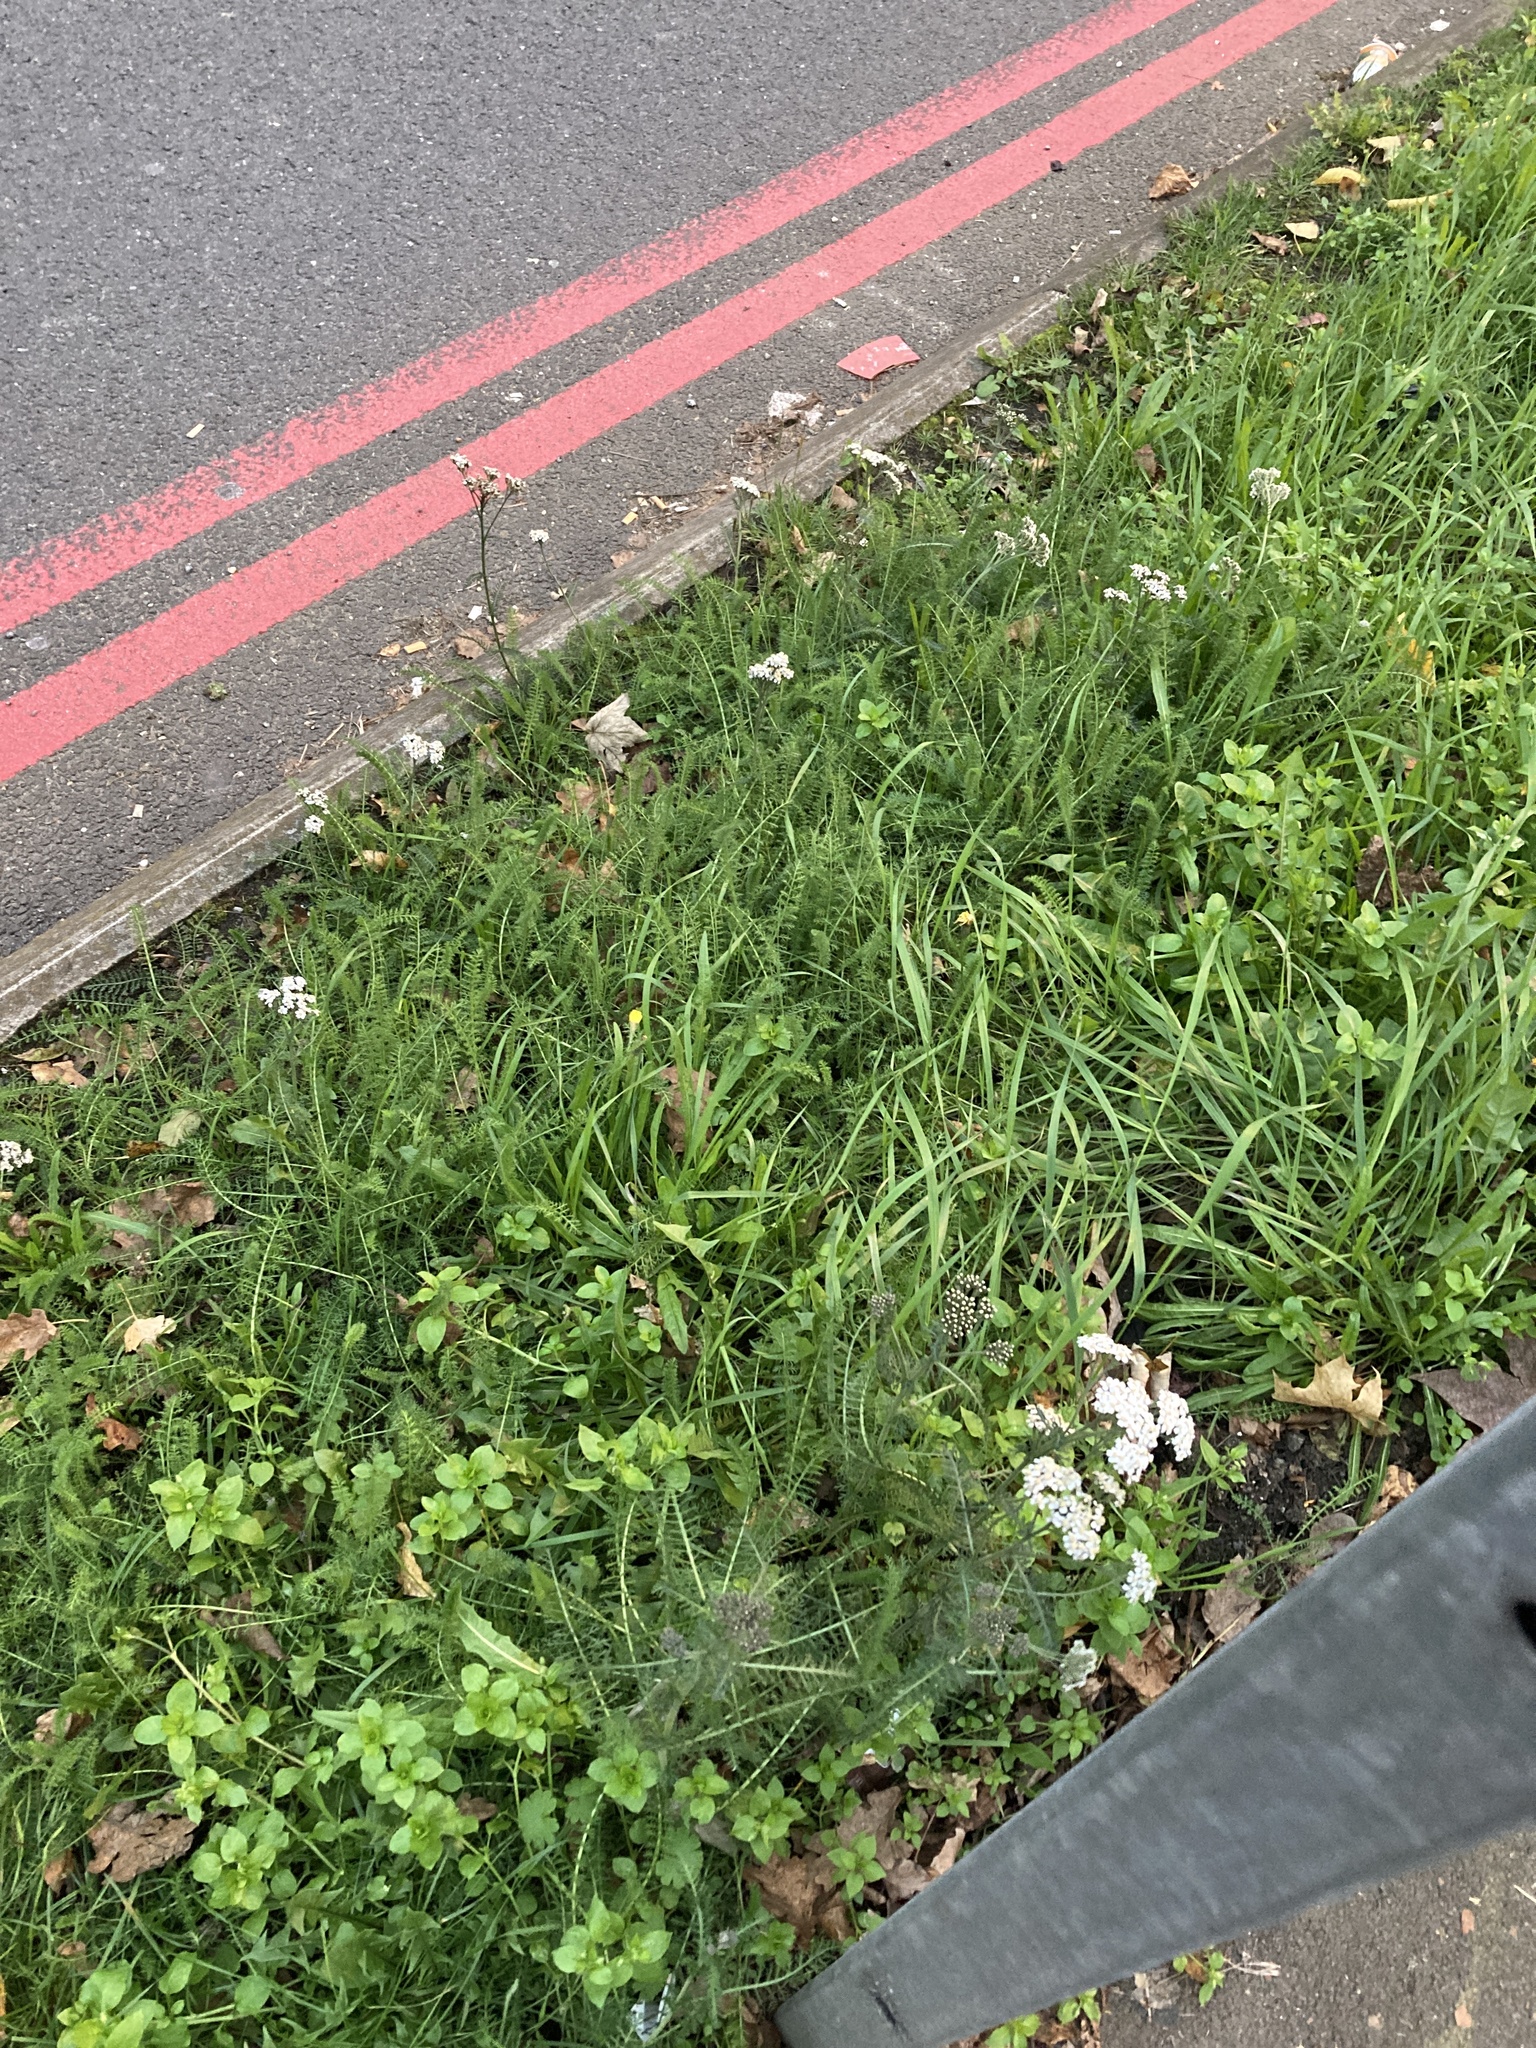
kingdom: Plantae
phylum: Tracheophyta
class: Magnoliopsida
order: Asterales
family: Asteraceae
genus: Achillea
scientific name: Achillea millefolium
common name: Yarrow
